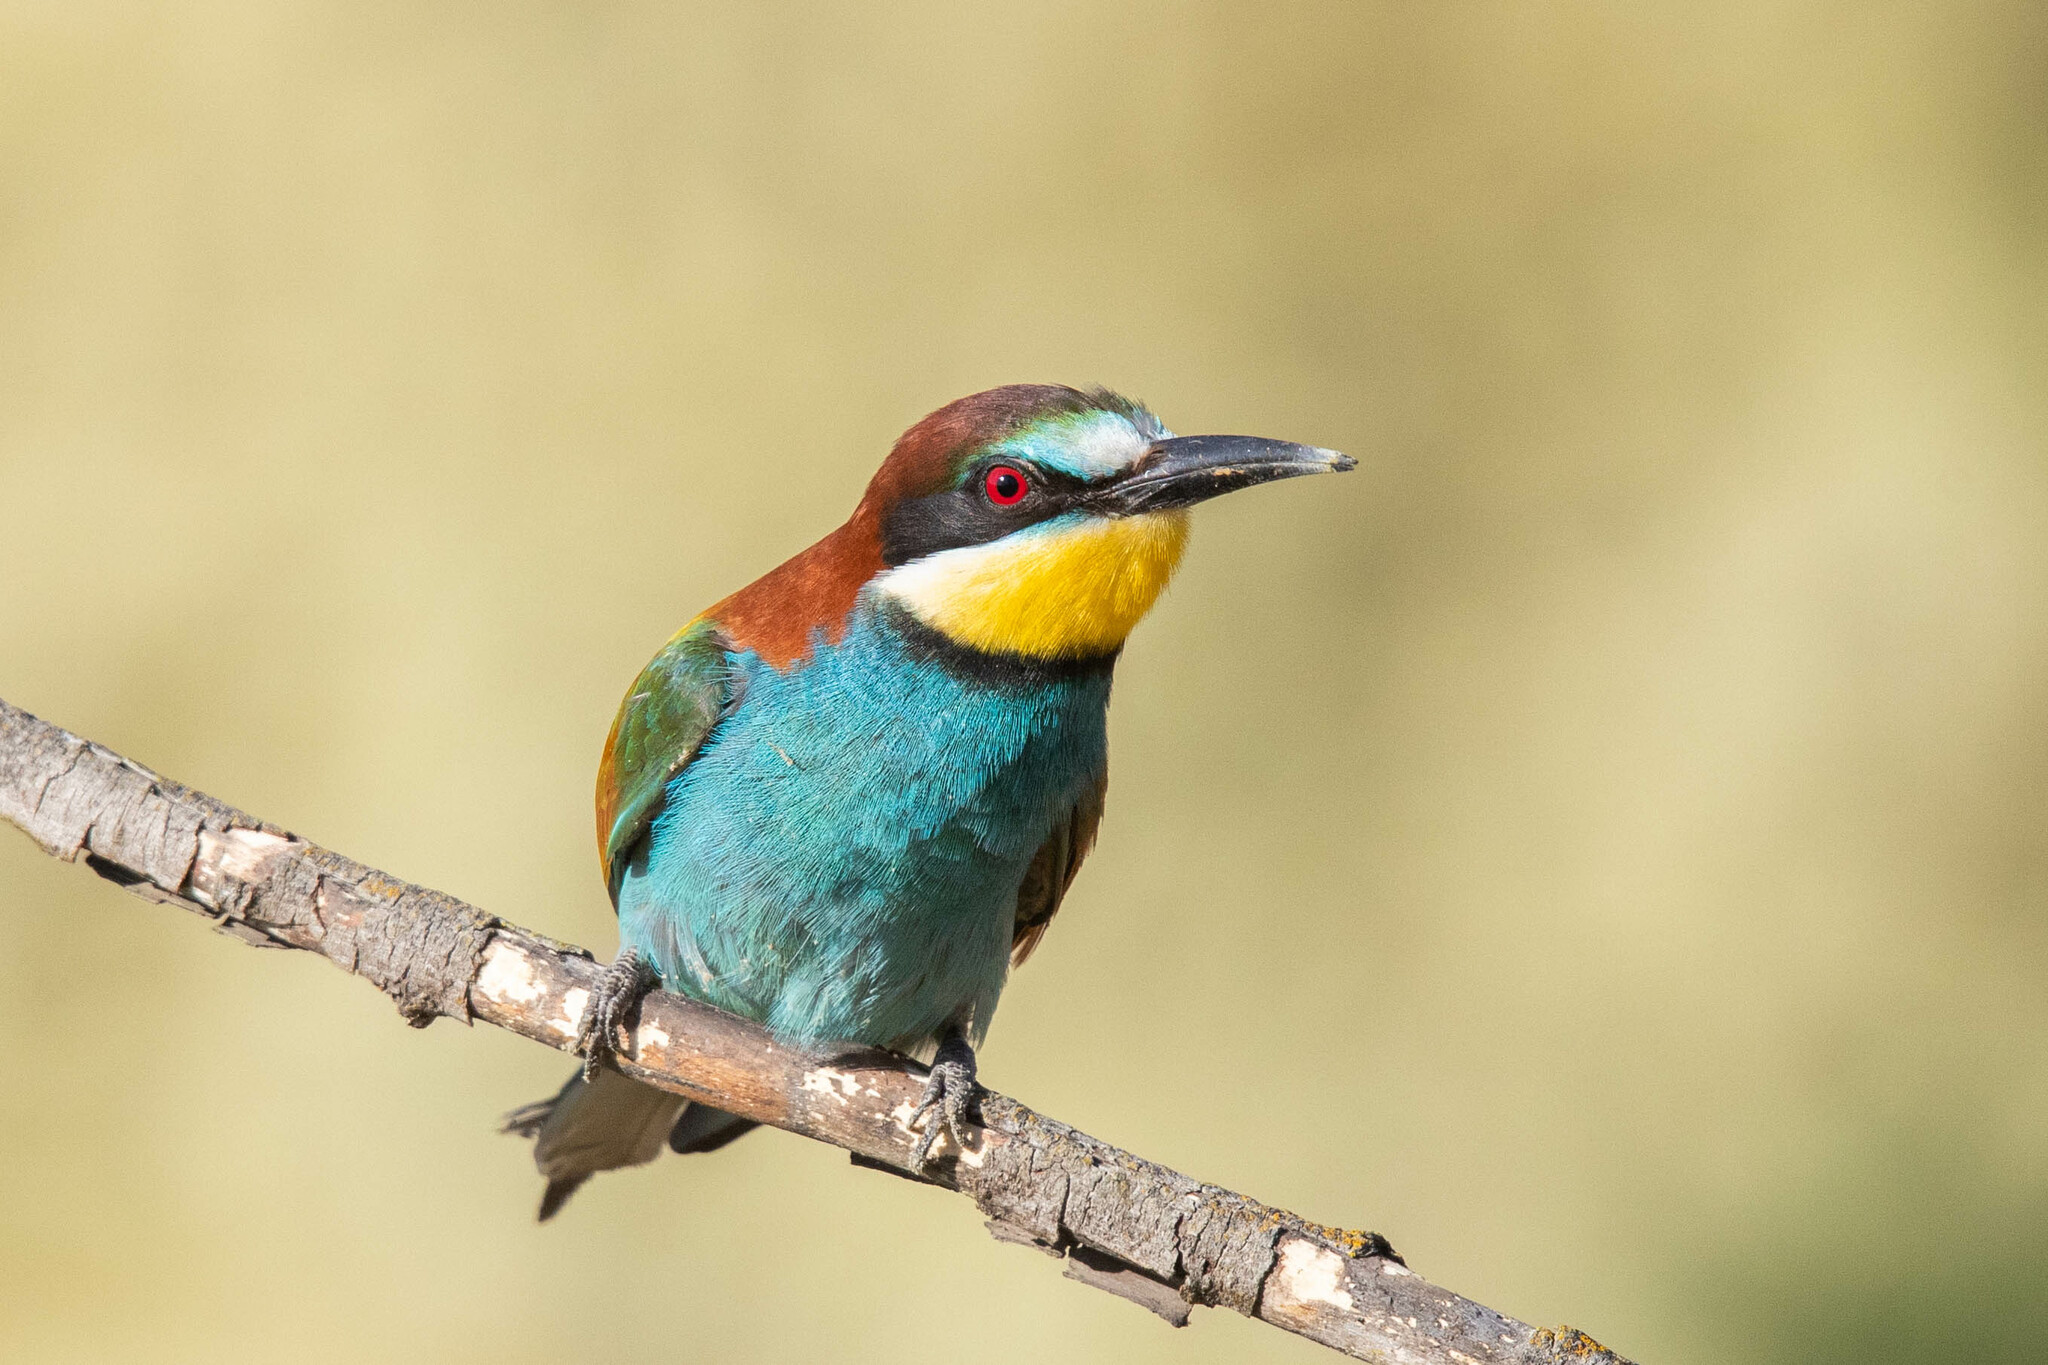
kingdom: Animalia
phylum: Chordata
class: Aves
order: Coraciiformes
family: Meropidae
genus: Merops
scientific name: Merops apiaster
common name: European bee-eater
